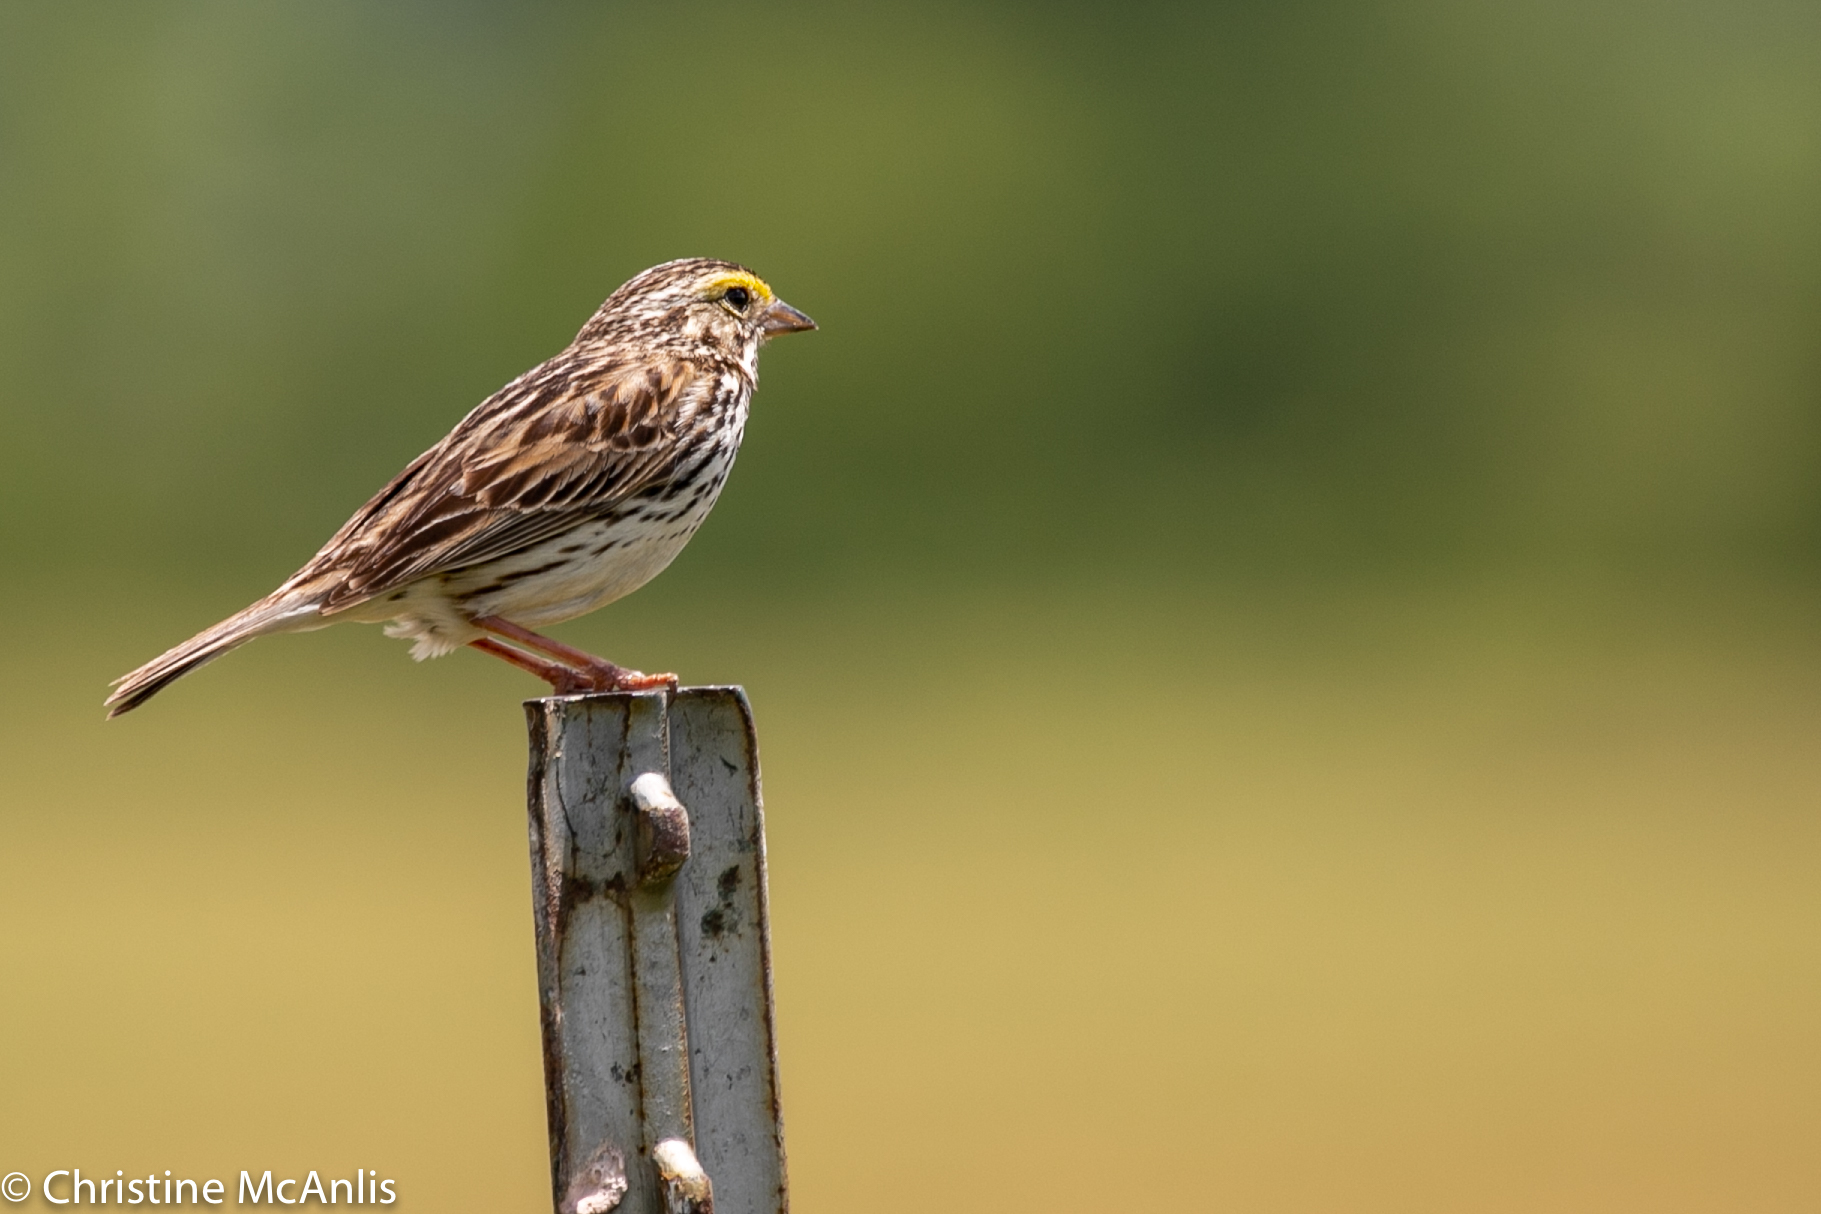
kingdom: Animalia
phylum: Chordata
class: Aves
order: Passeriformes
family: Passerellidae
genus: Passerculus
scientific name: Passerculus sandwichensis
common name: Savannah sparrow
